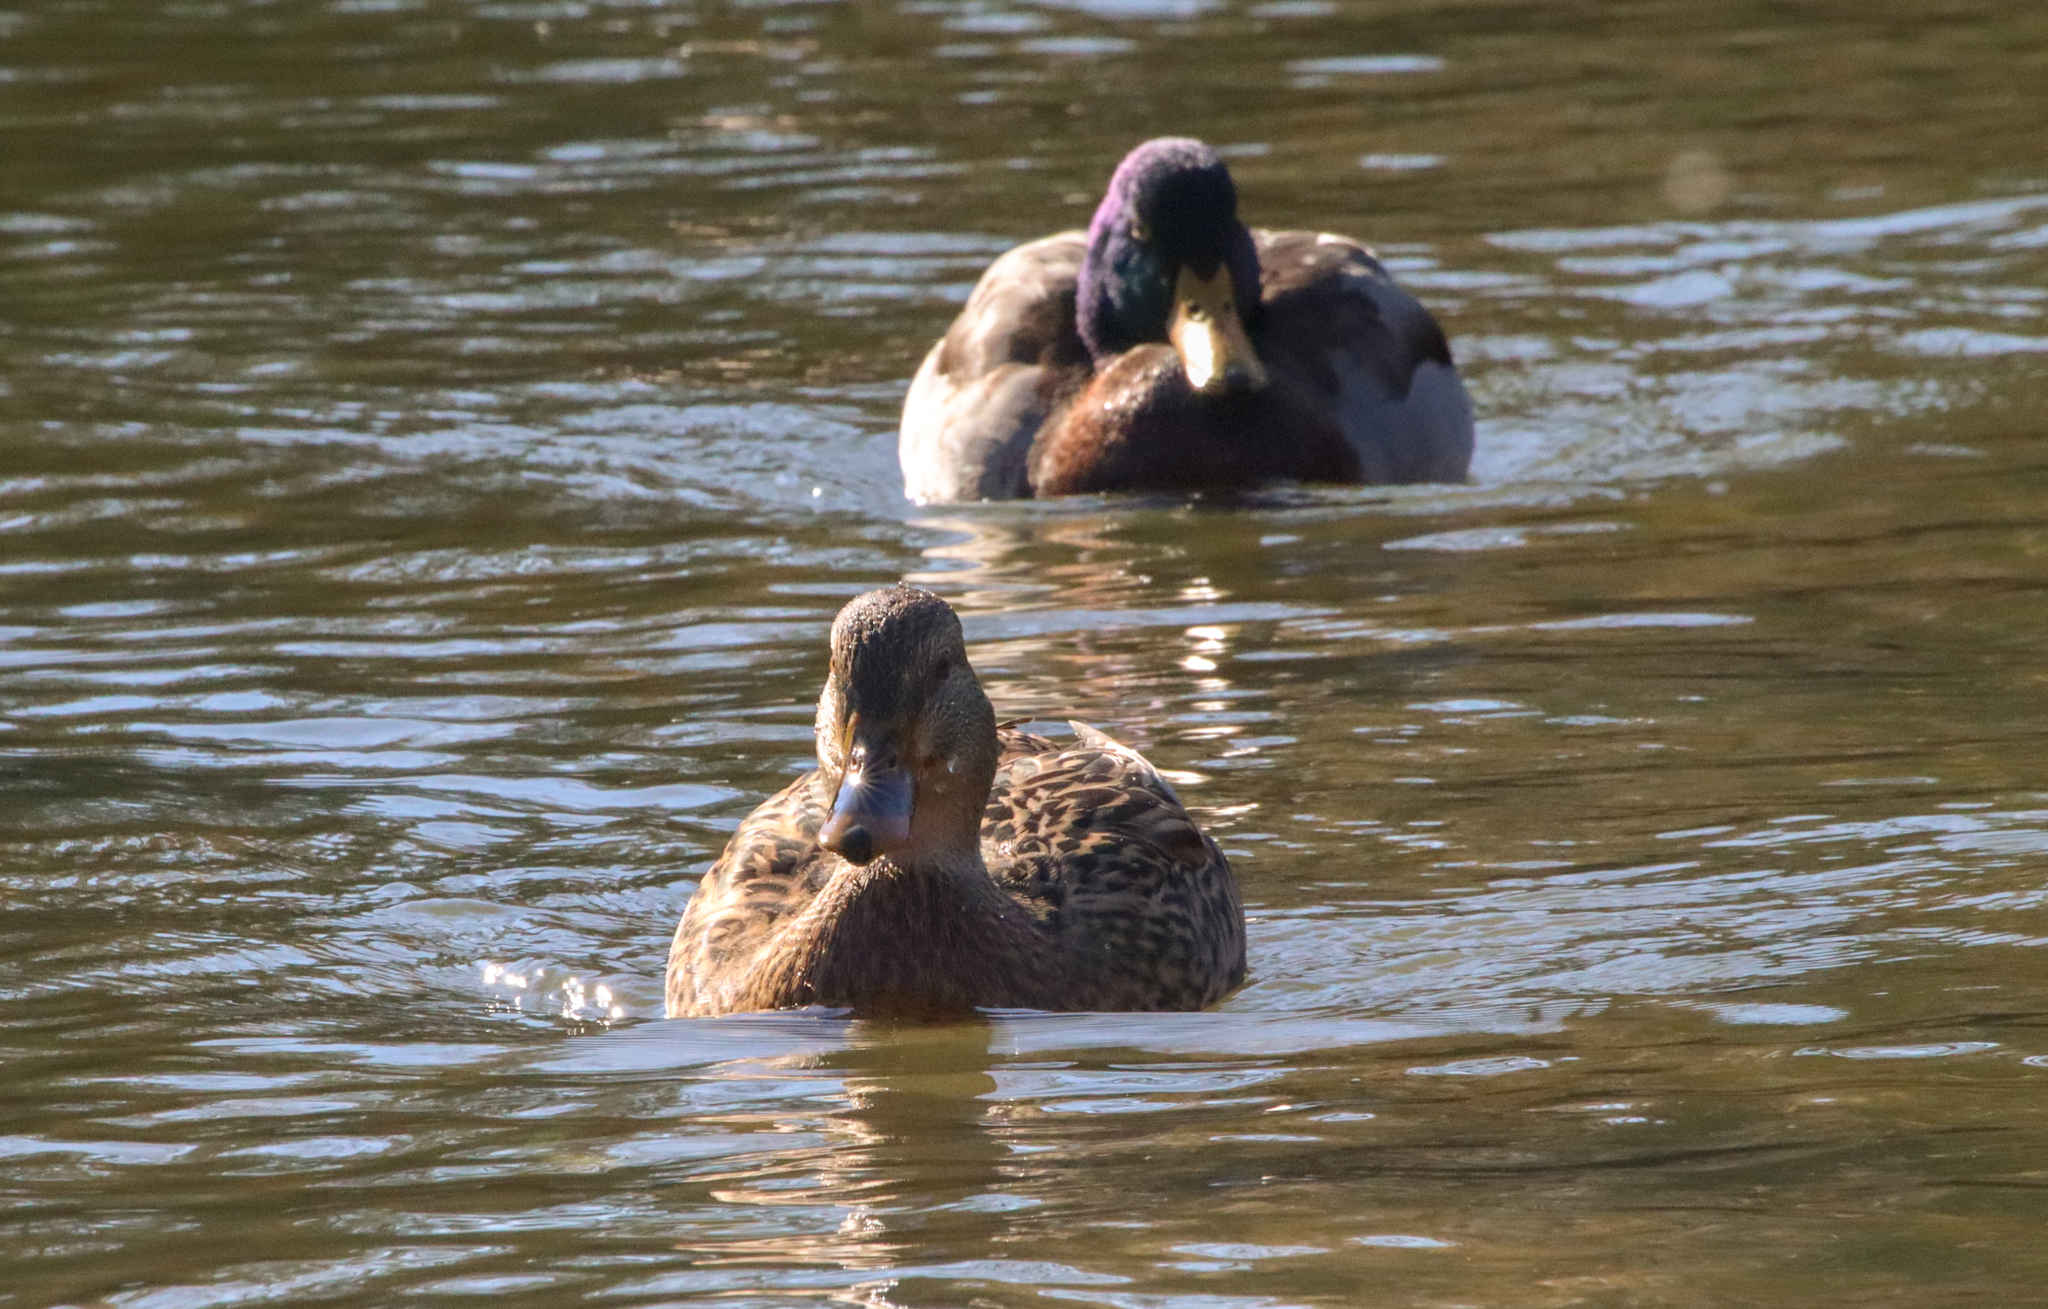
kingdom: Animalia
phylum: Chordata
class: Aves
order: Anseriformes
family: Anatidae
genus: Anas
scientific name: Anas platyrhynchos
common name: Mallard
